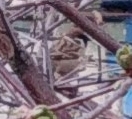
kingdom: Animalia
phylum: Chordata
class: Aves
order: Passeriformes
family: Passeridae
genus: Passer
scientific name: Passer montanus
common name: Eurasian tree sparrow
